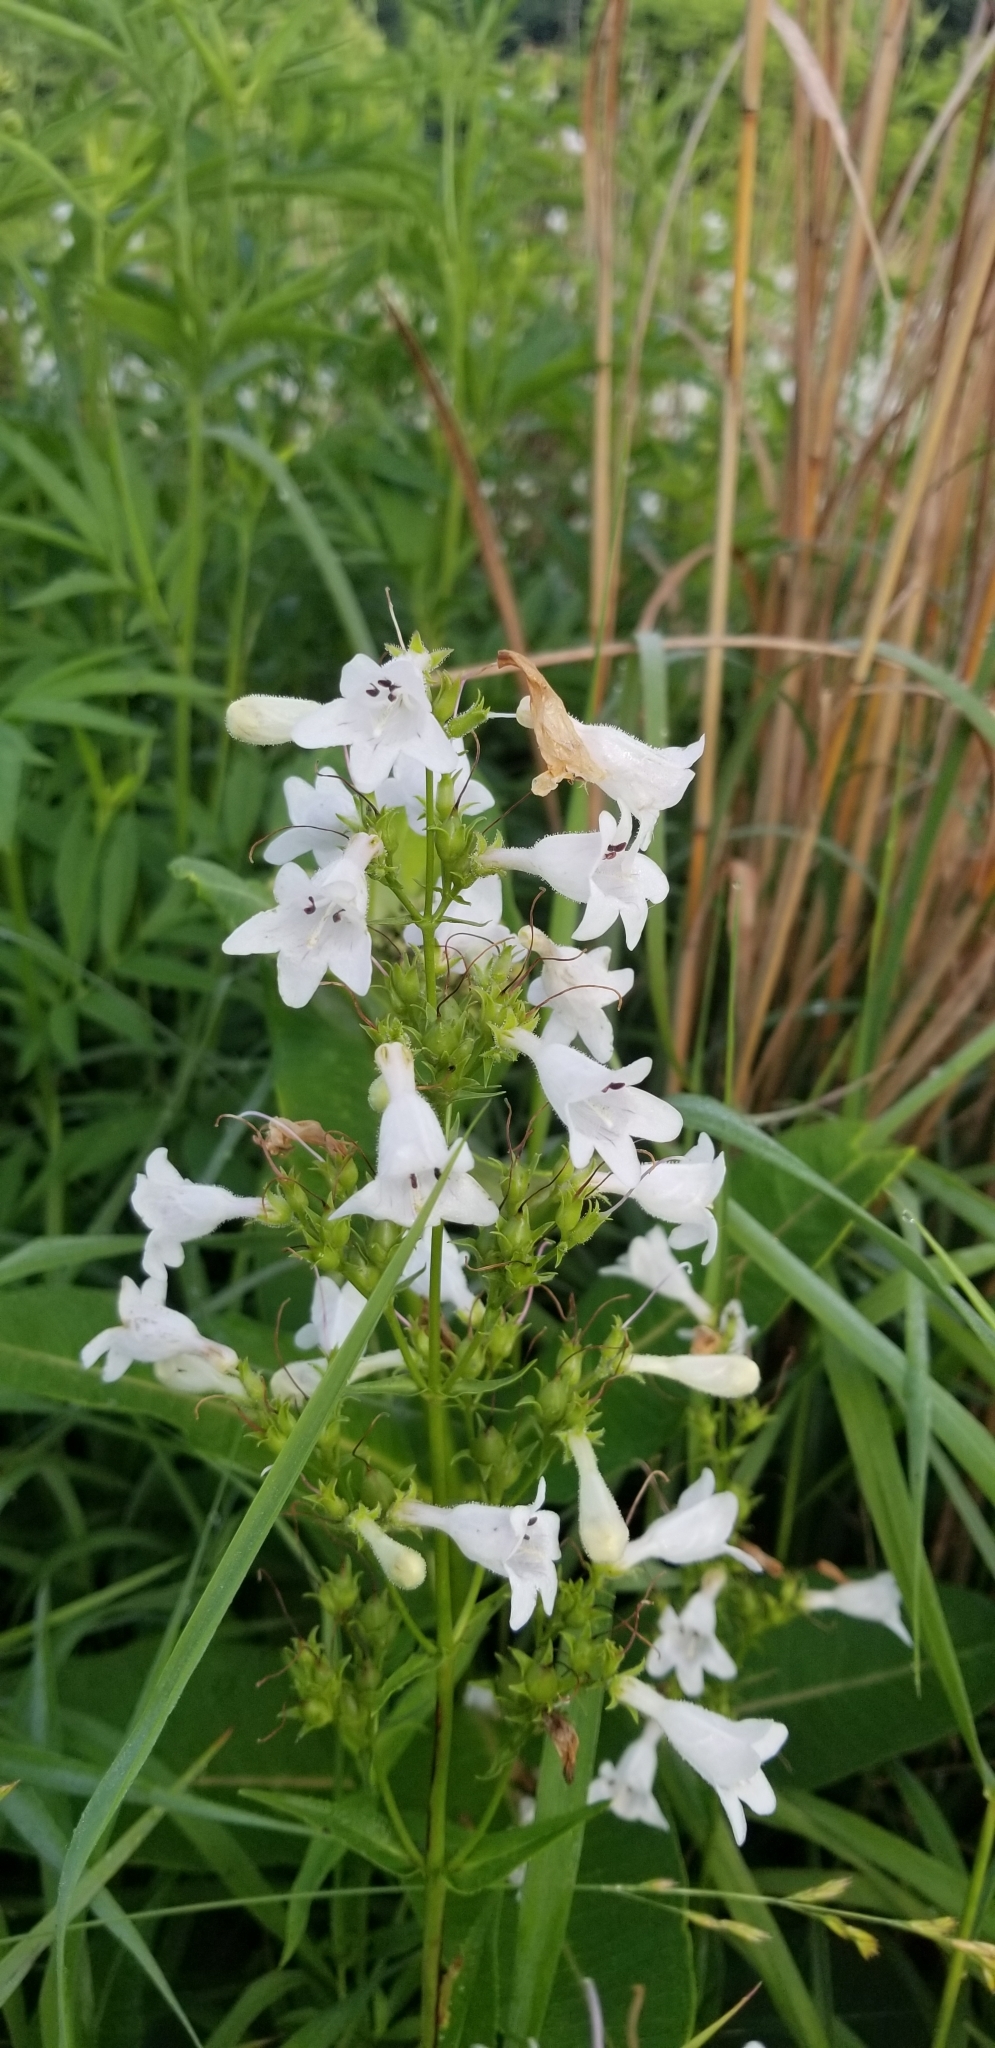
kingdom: Plantae
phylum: Tracheophyta
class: Magnoliopsida
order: Lamiales
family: Plantaginaceae
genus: Penstemon
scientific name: Penstemon digitalis
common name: Foxglove beardtongue
